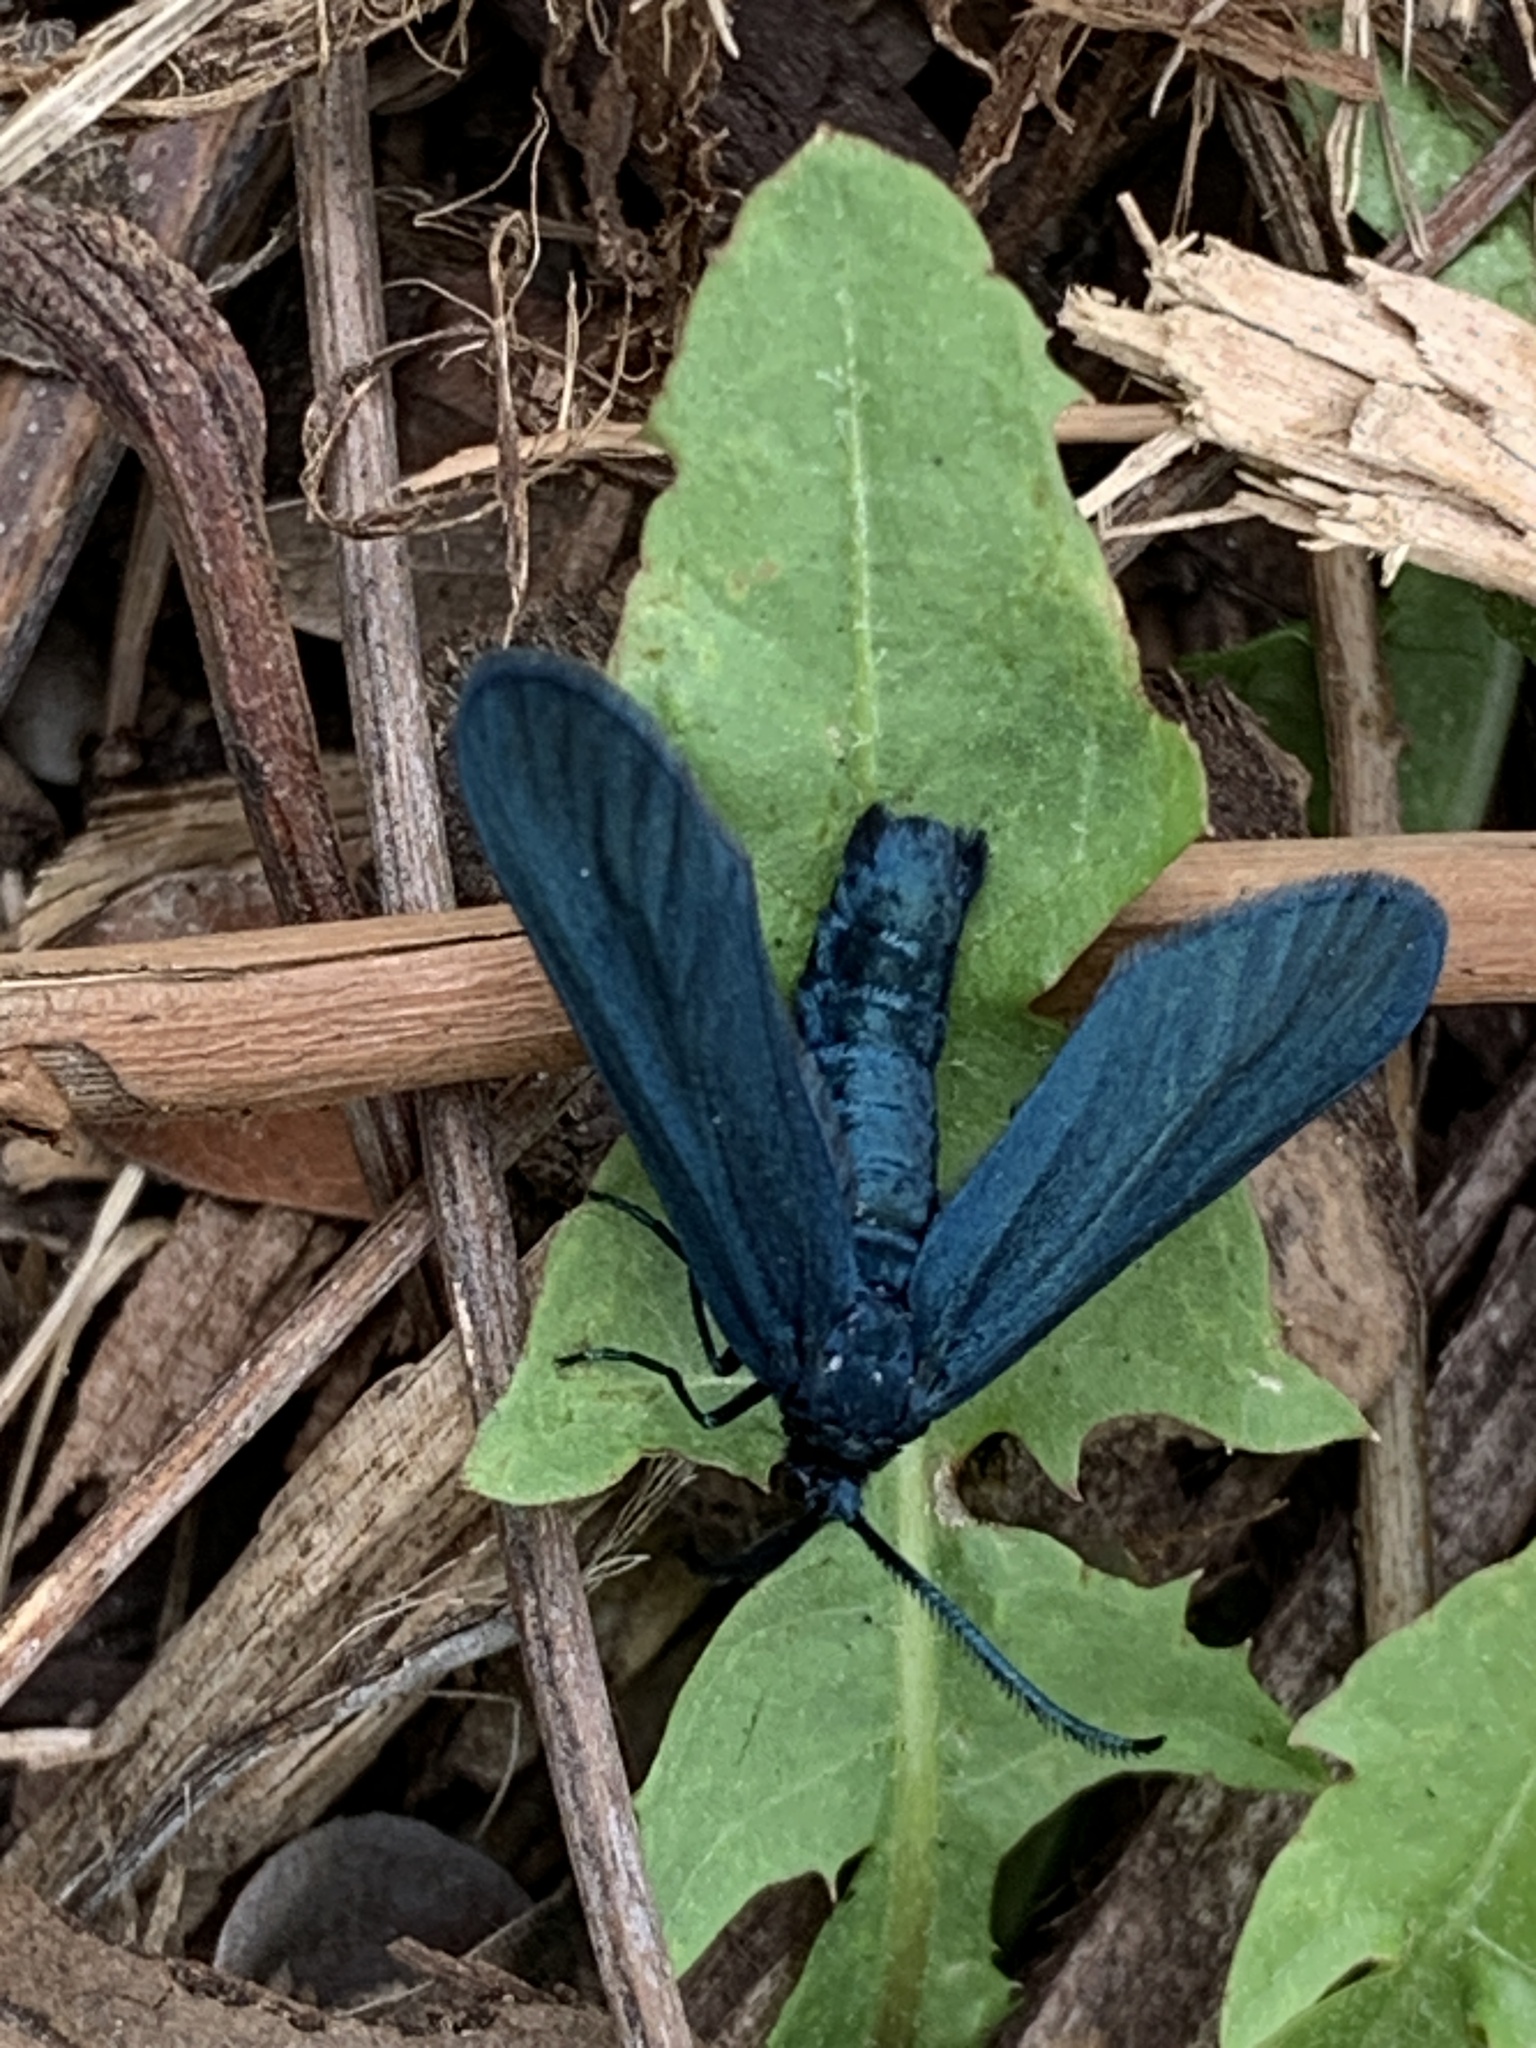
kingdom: Animalia
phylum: Arthropoda
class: Insecta
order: Lepidoptera
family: Zygaenidae
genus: Harrisina
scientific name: Harrisina metallica
